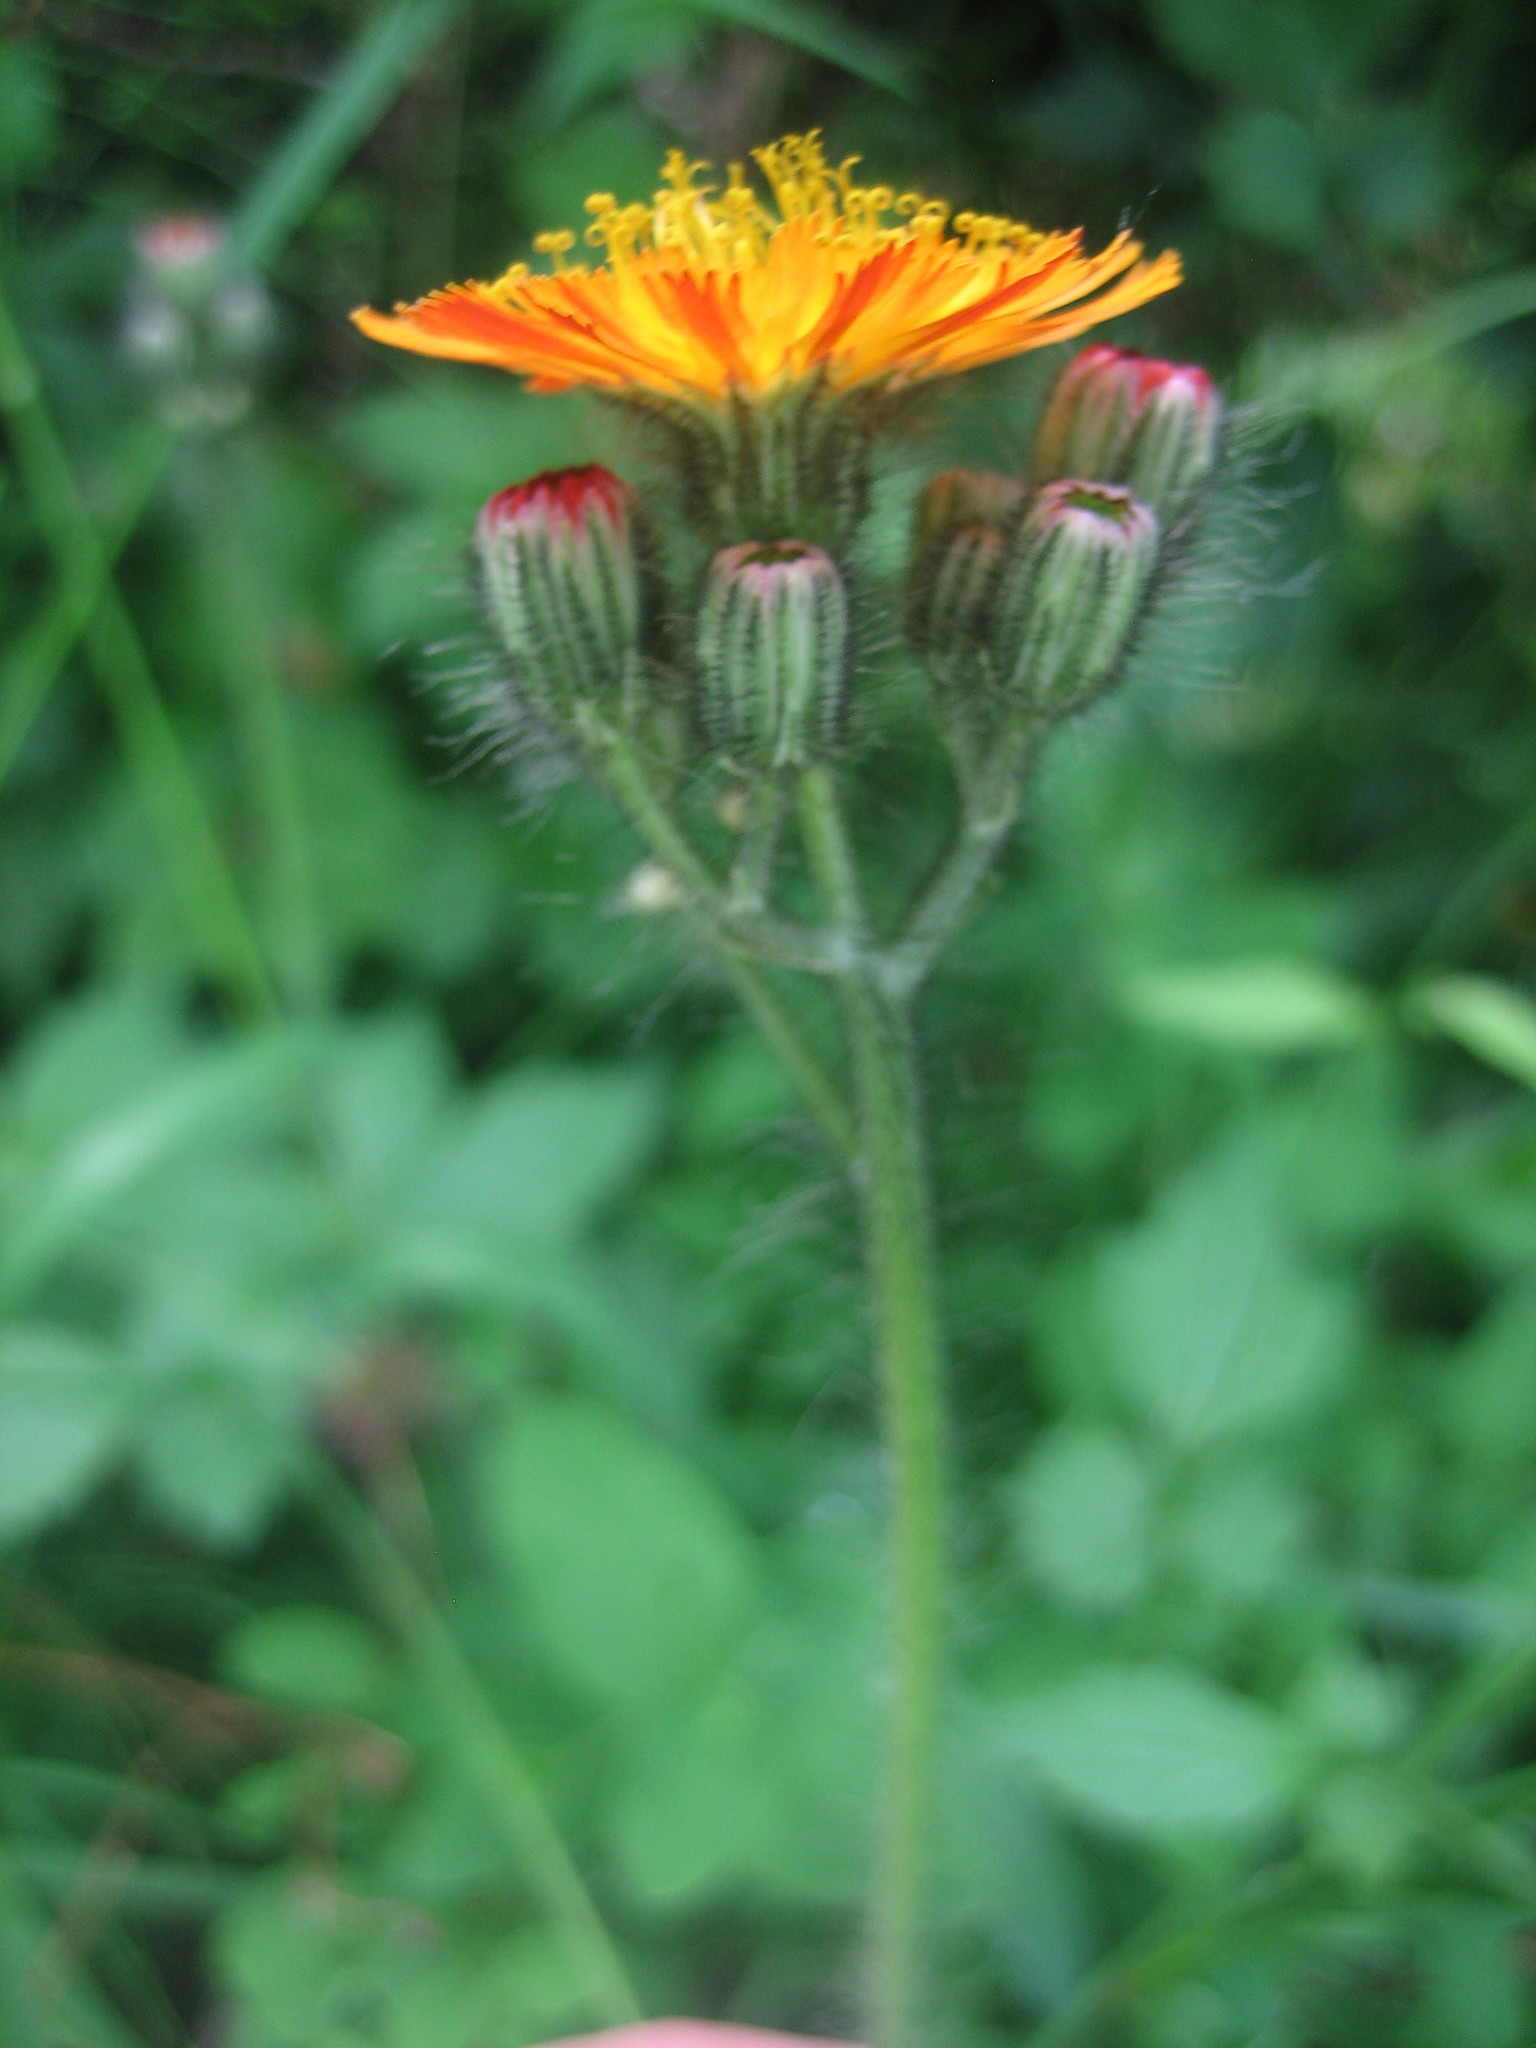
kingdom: Plantae
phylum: Tracheophyta
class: Magnoliopsida
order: Asterales
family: Asteraceae
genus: Pilosella
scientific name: Pilosella aurantiaca
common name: Fox-and-cubs
